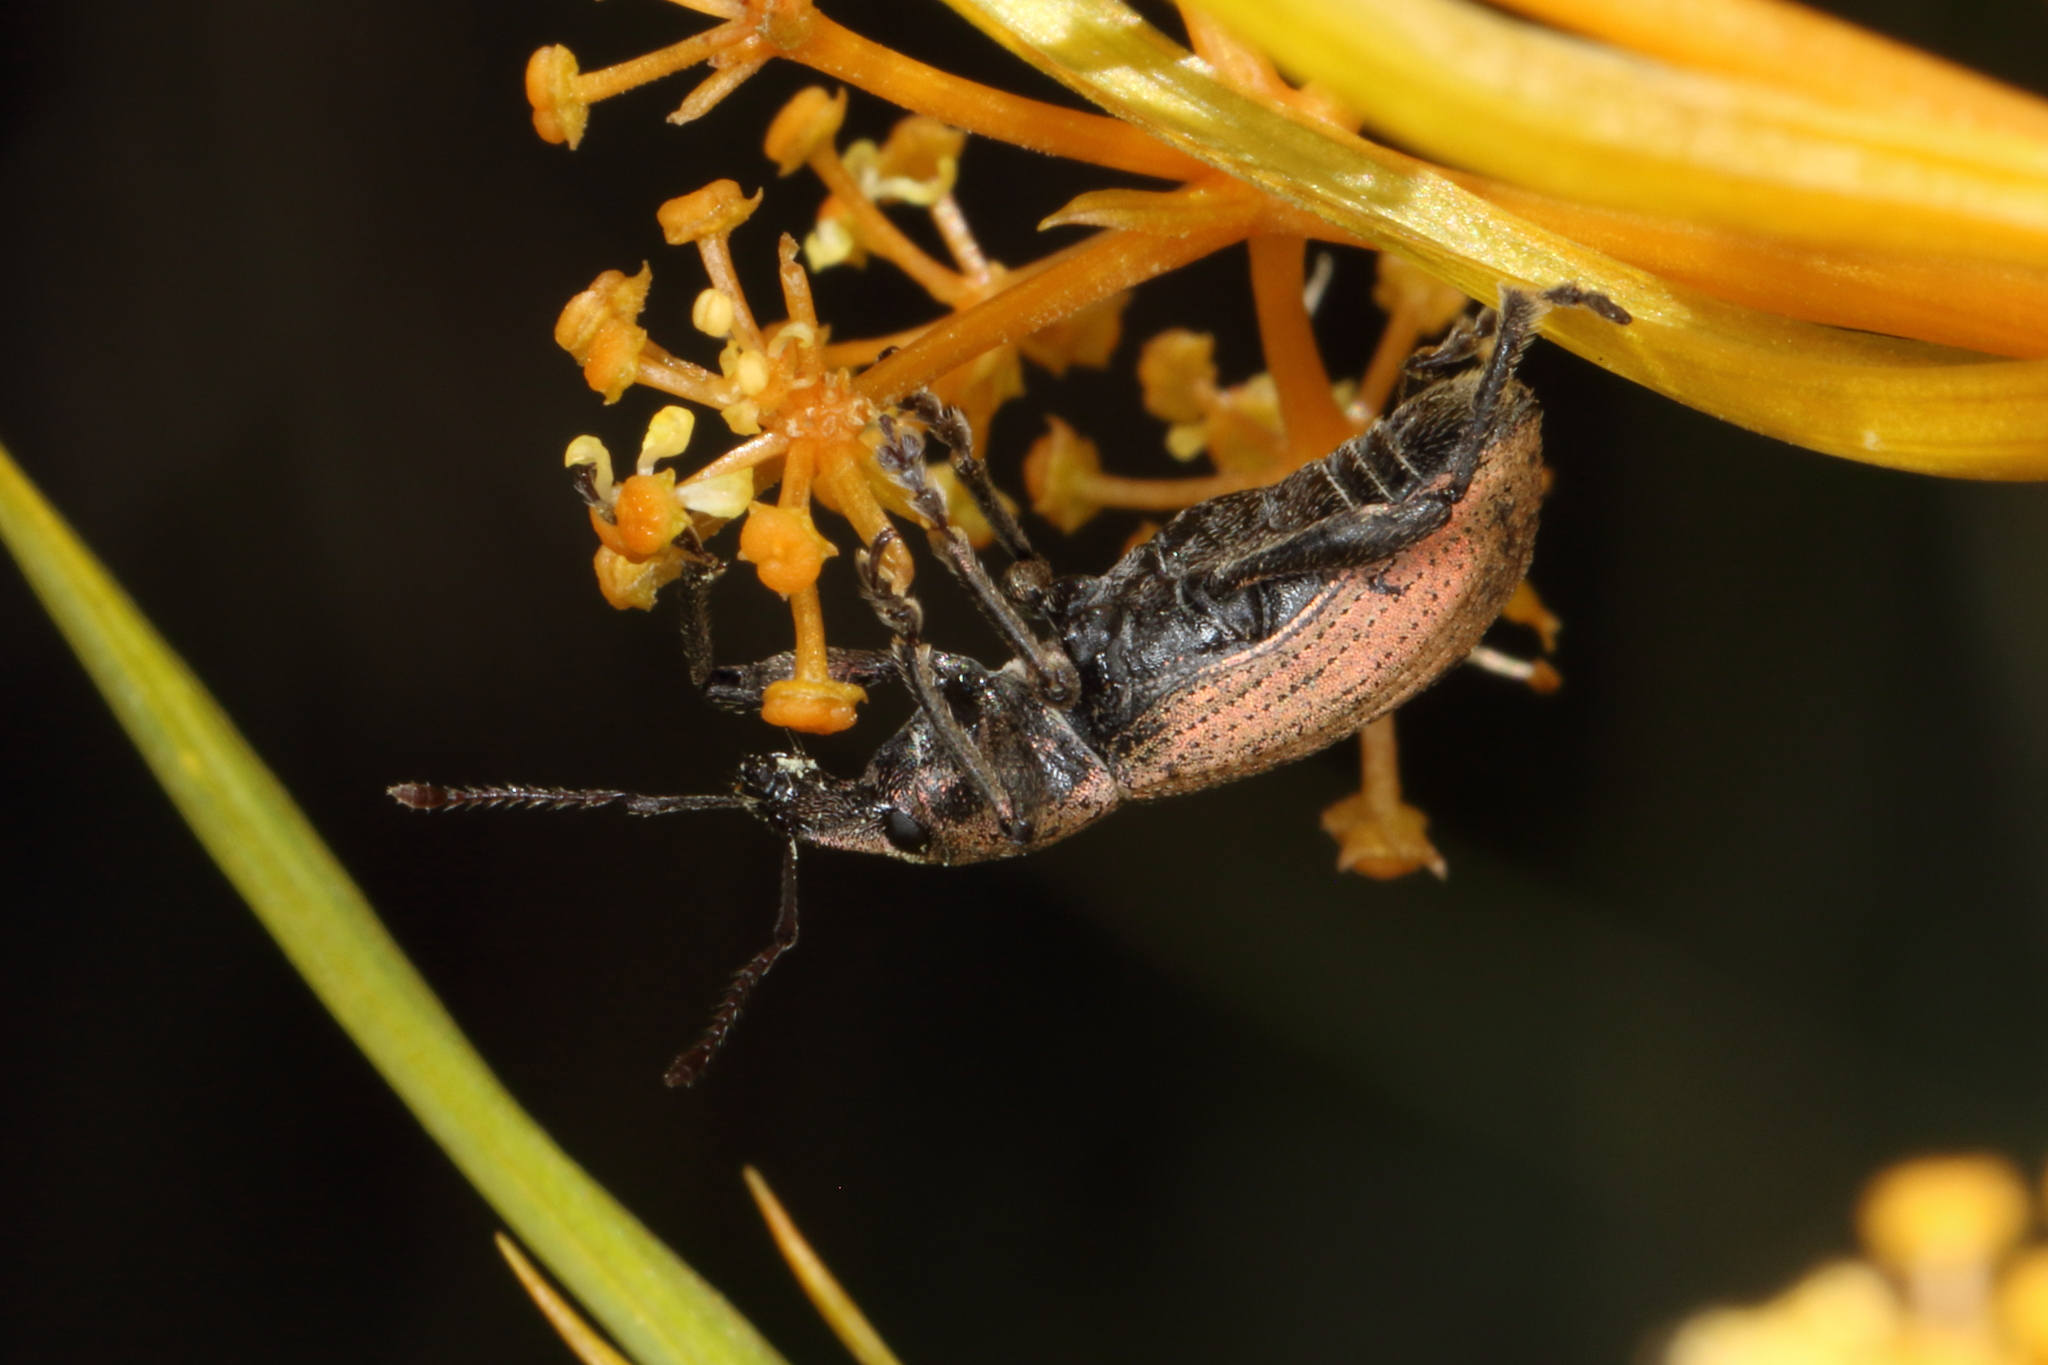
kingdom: Animalia
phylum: Arthropoda
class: Insecta
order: Coleoptera
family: Curculionidae
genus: Chalepistes
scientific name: Chalepistes pensus
